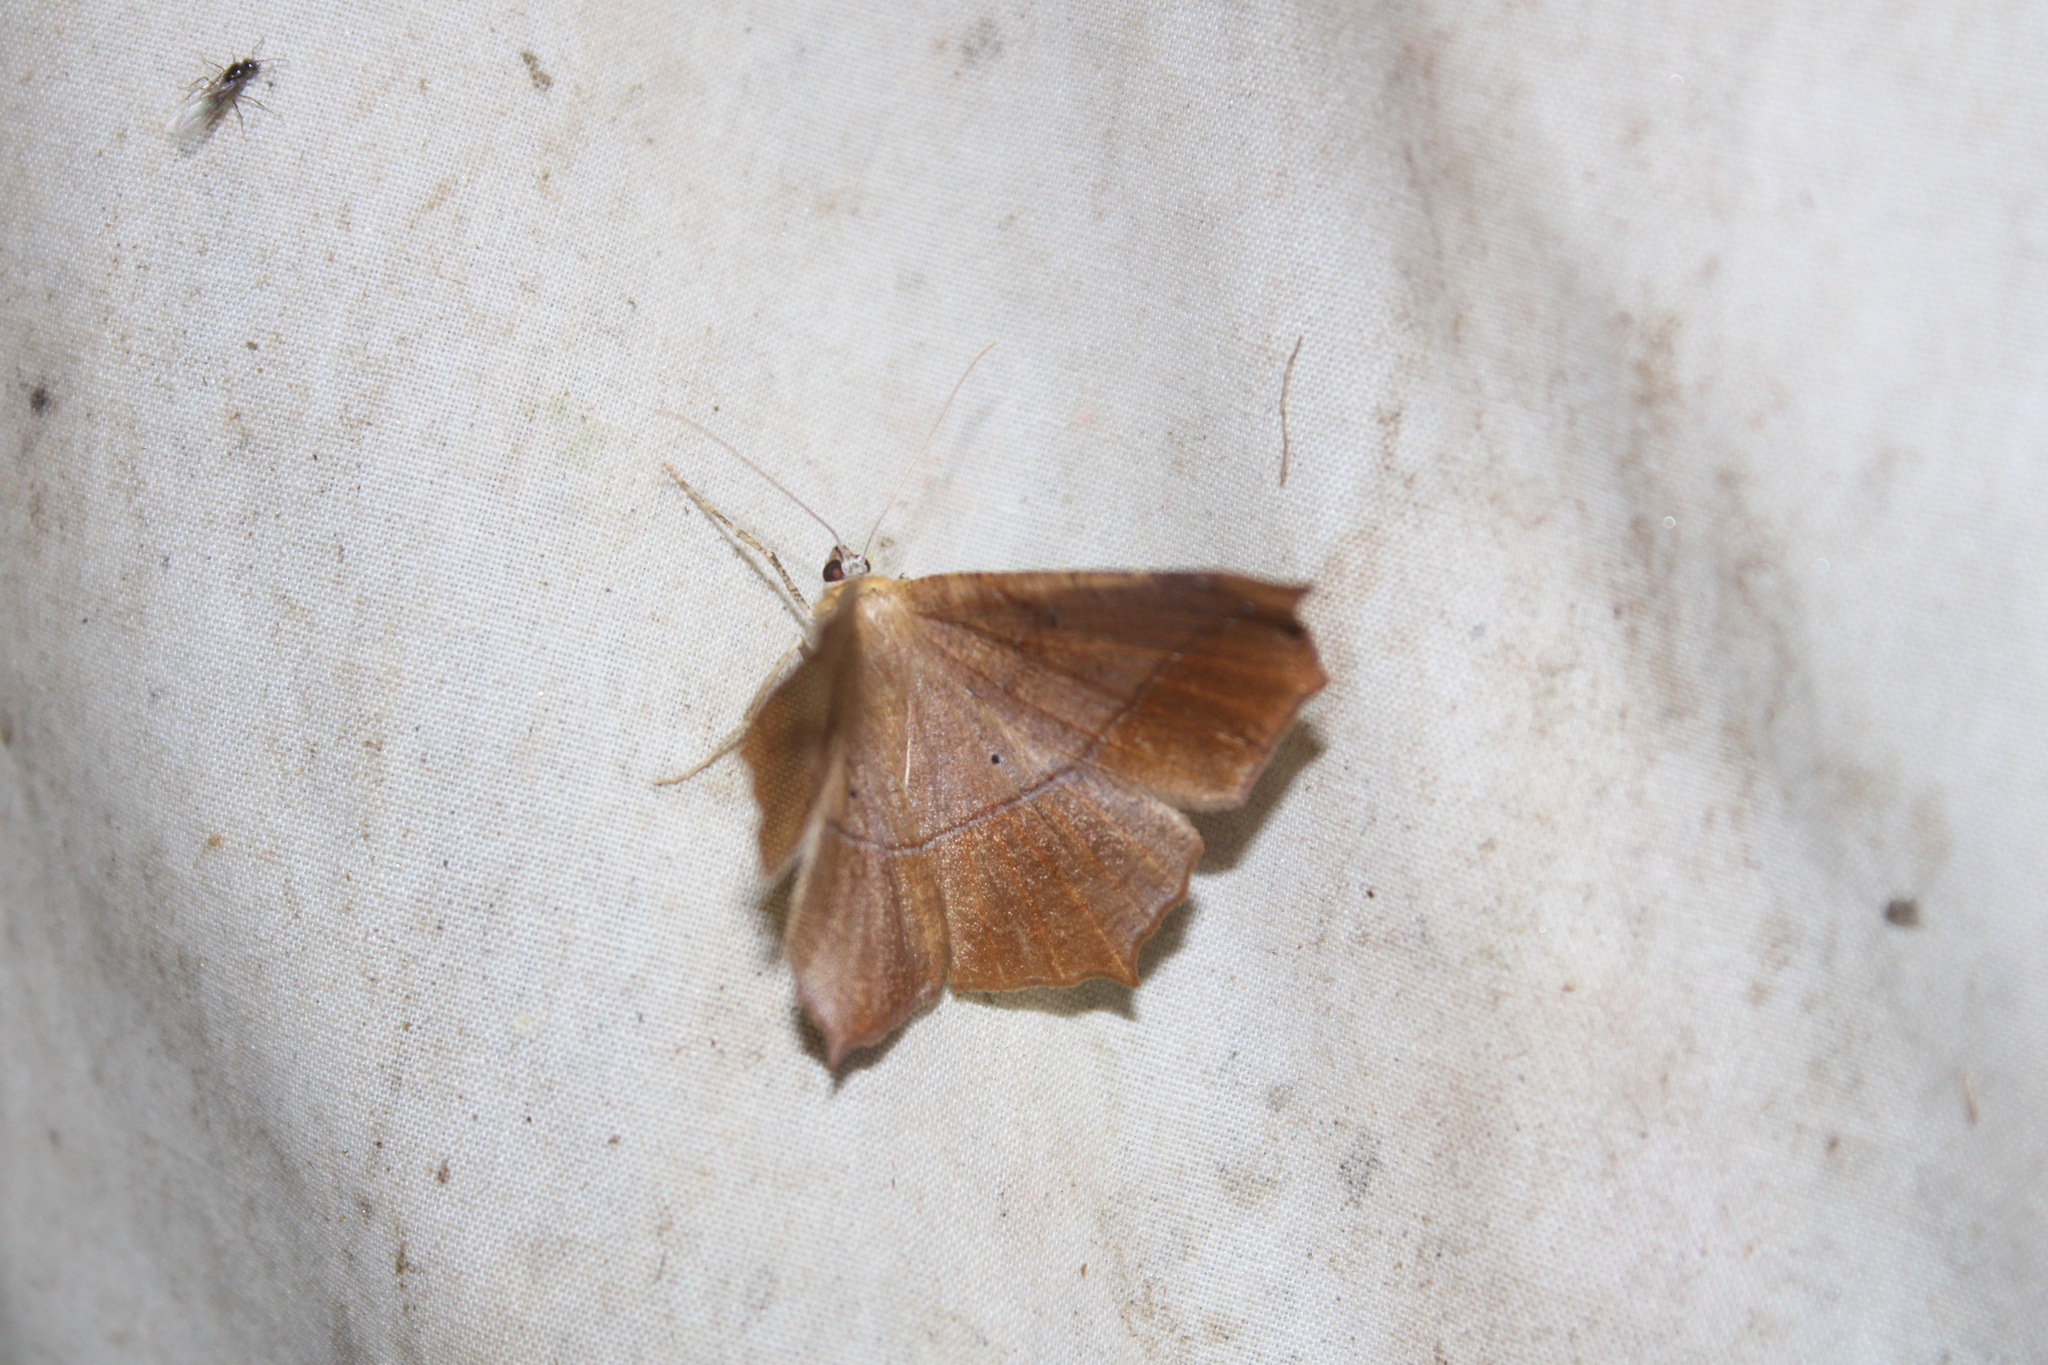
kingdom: Animalia
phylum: Arthropoda
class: Insecta
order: Lepidoptera
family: Geometridae
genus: Prochoerodes
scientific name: Prochoerodes lineola
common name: Large maple spanworm
